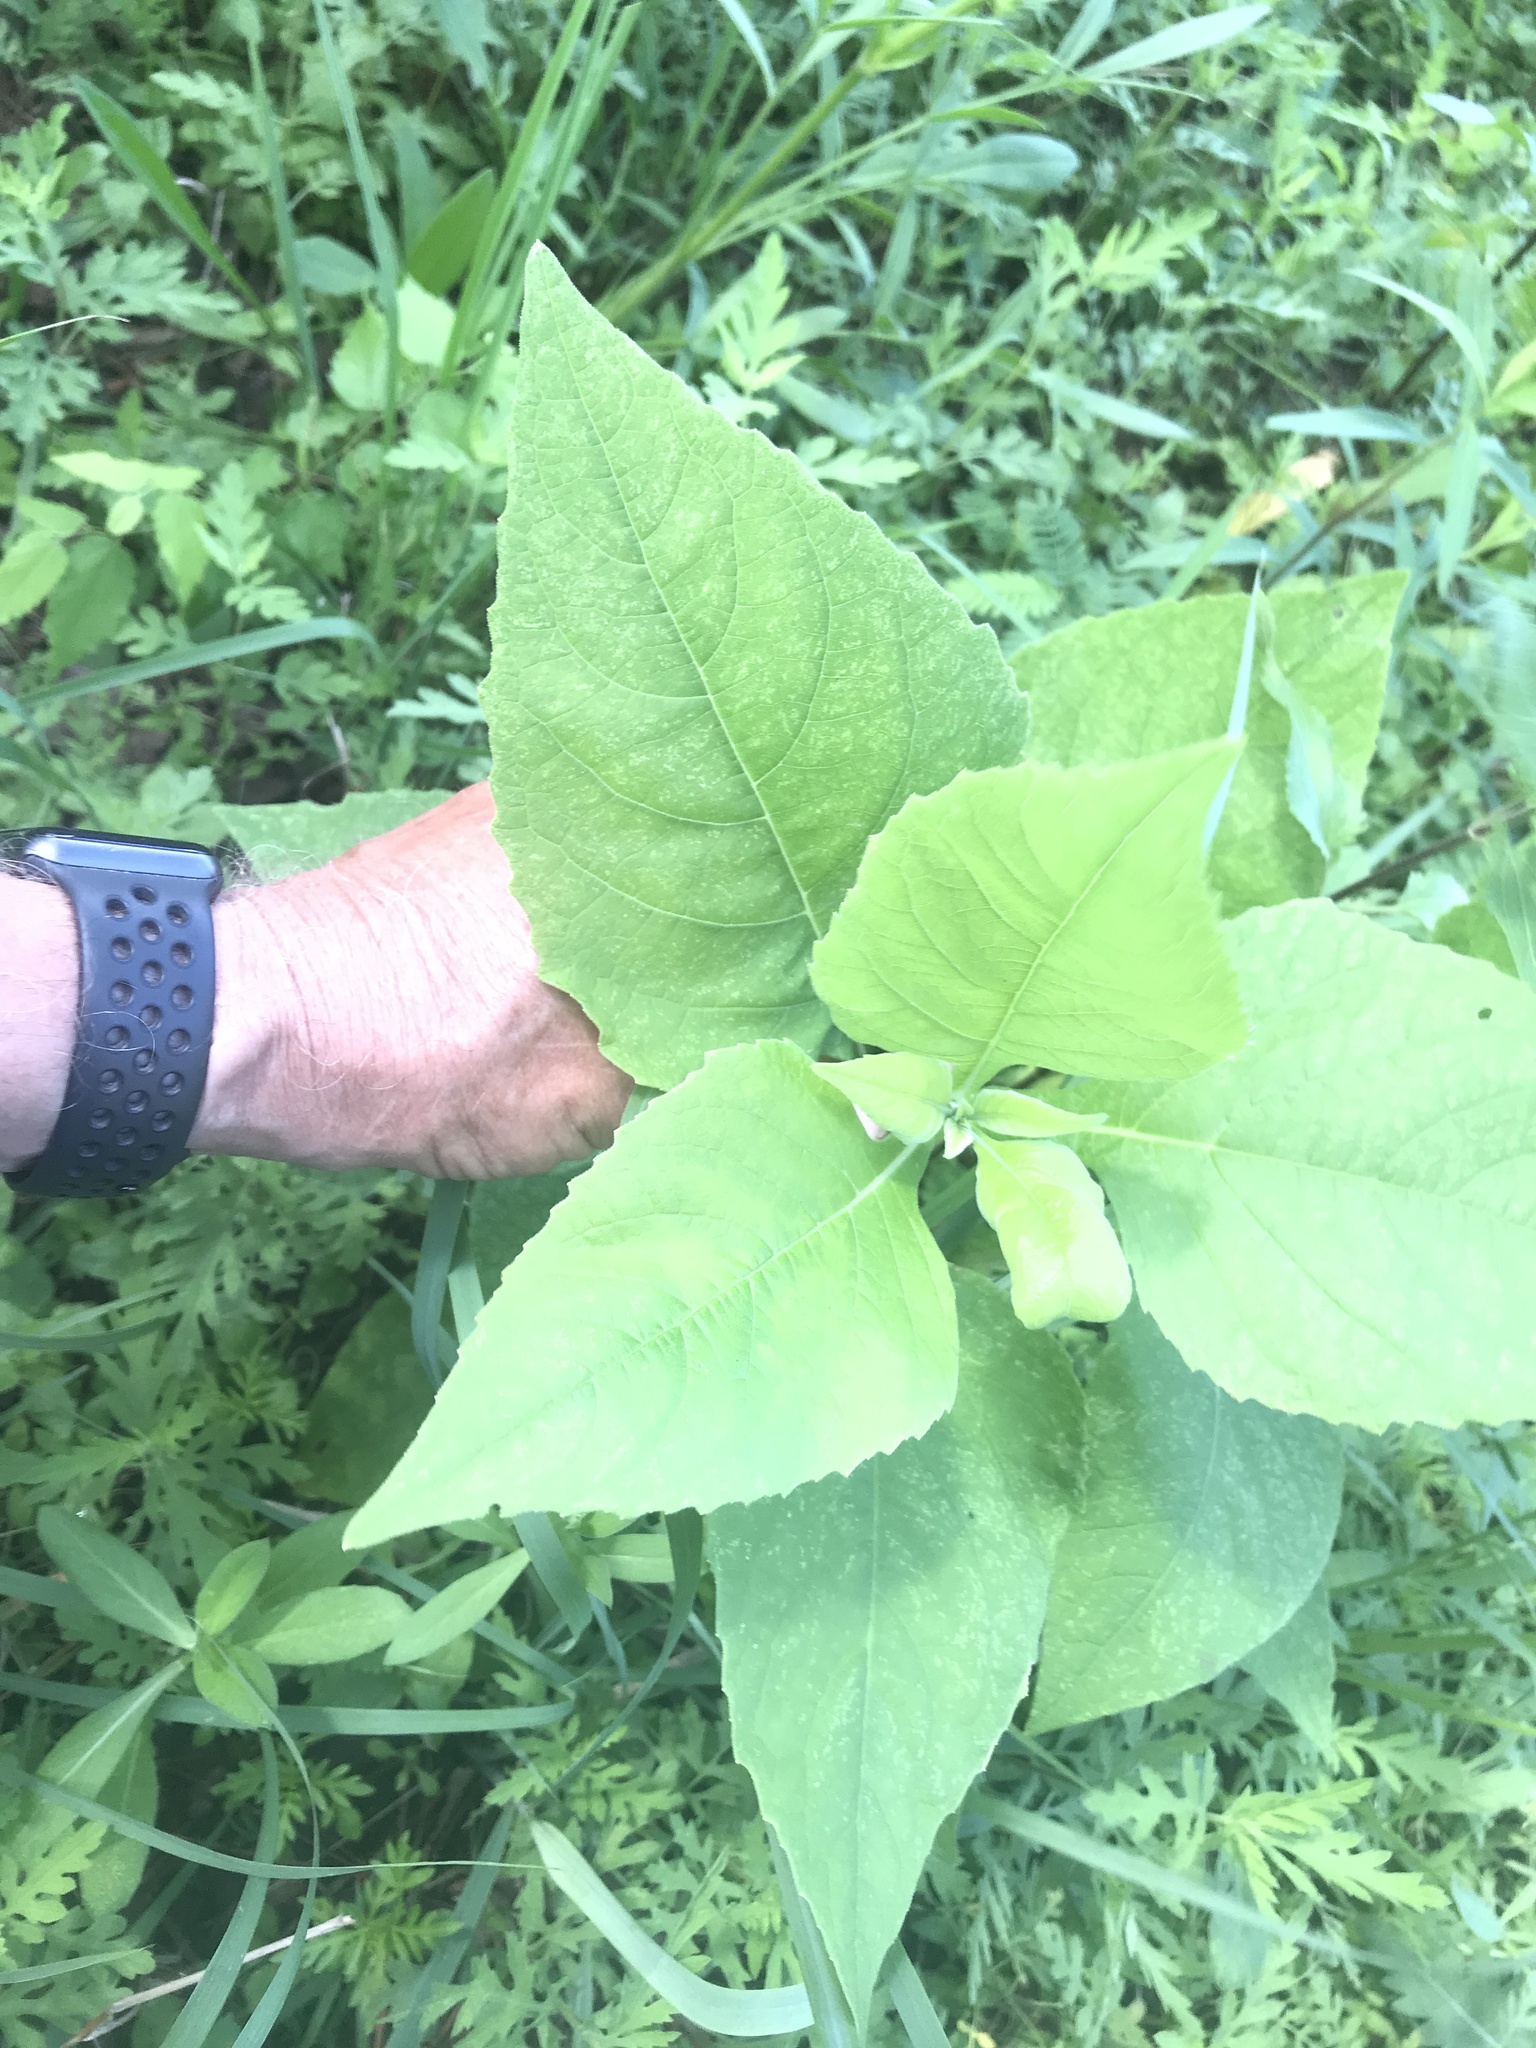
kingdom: Plantae
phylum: Tracheophyta
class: Magnoliopsida
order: Asterales
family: Asteraceae
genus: Verbesina
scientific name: Verbesina virginica
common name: Frostweed
